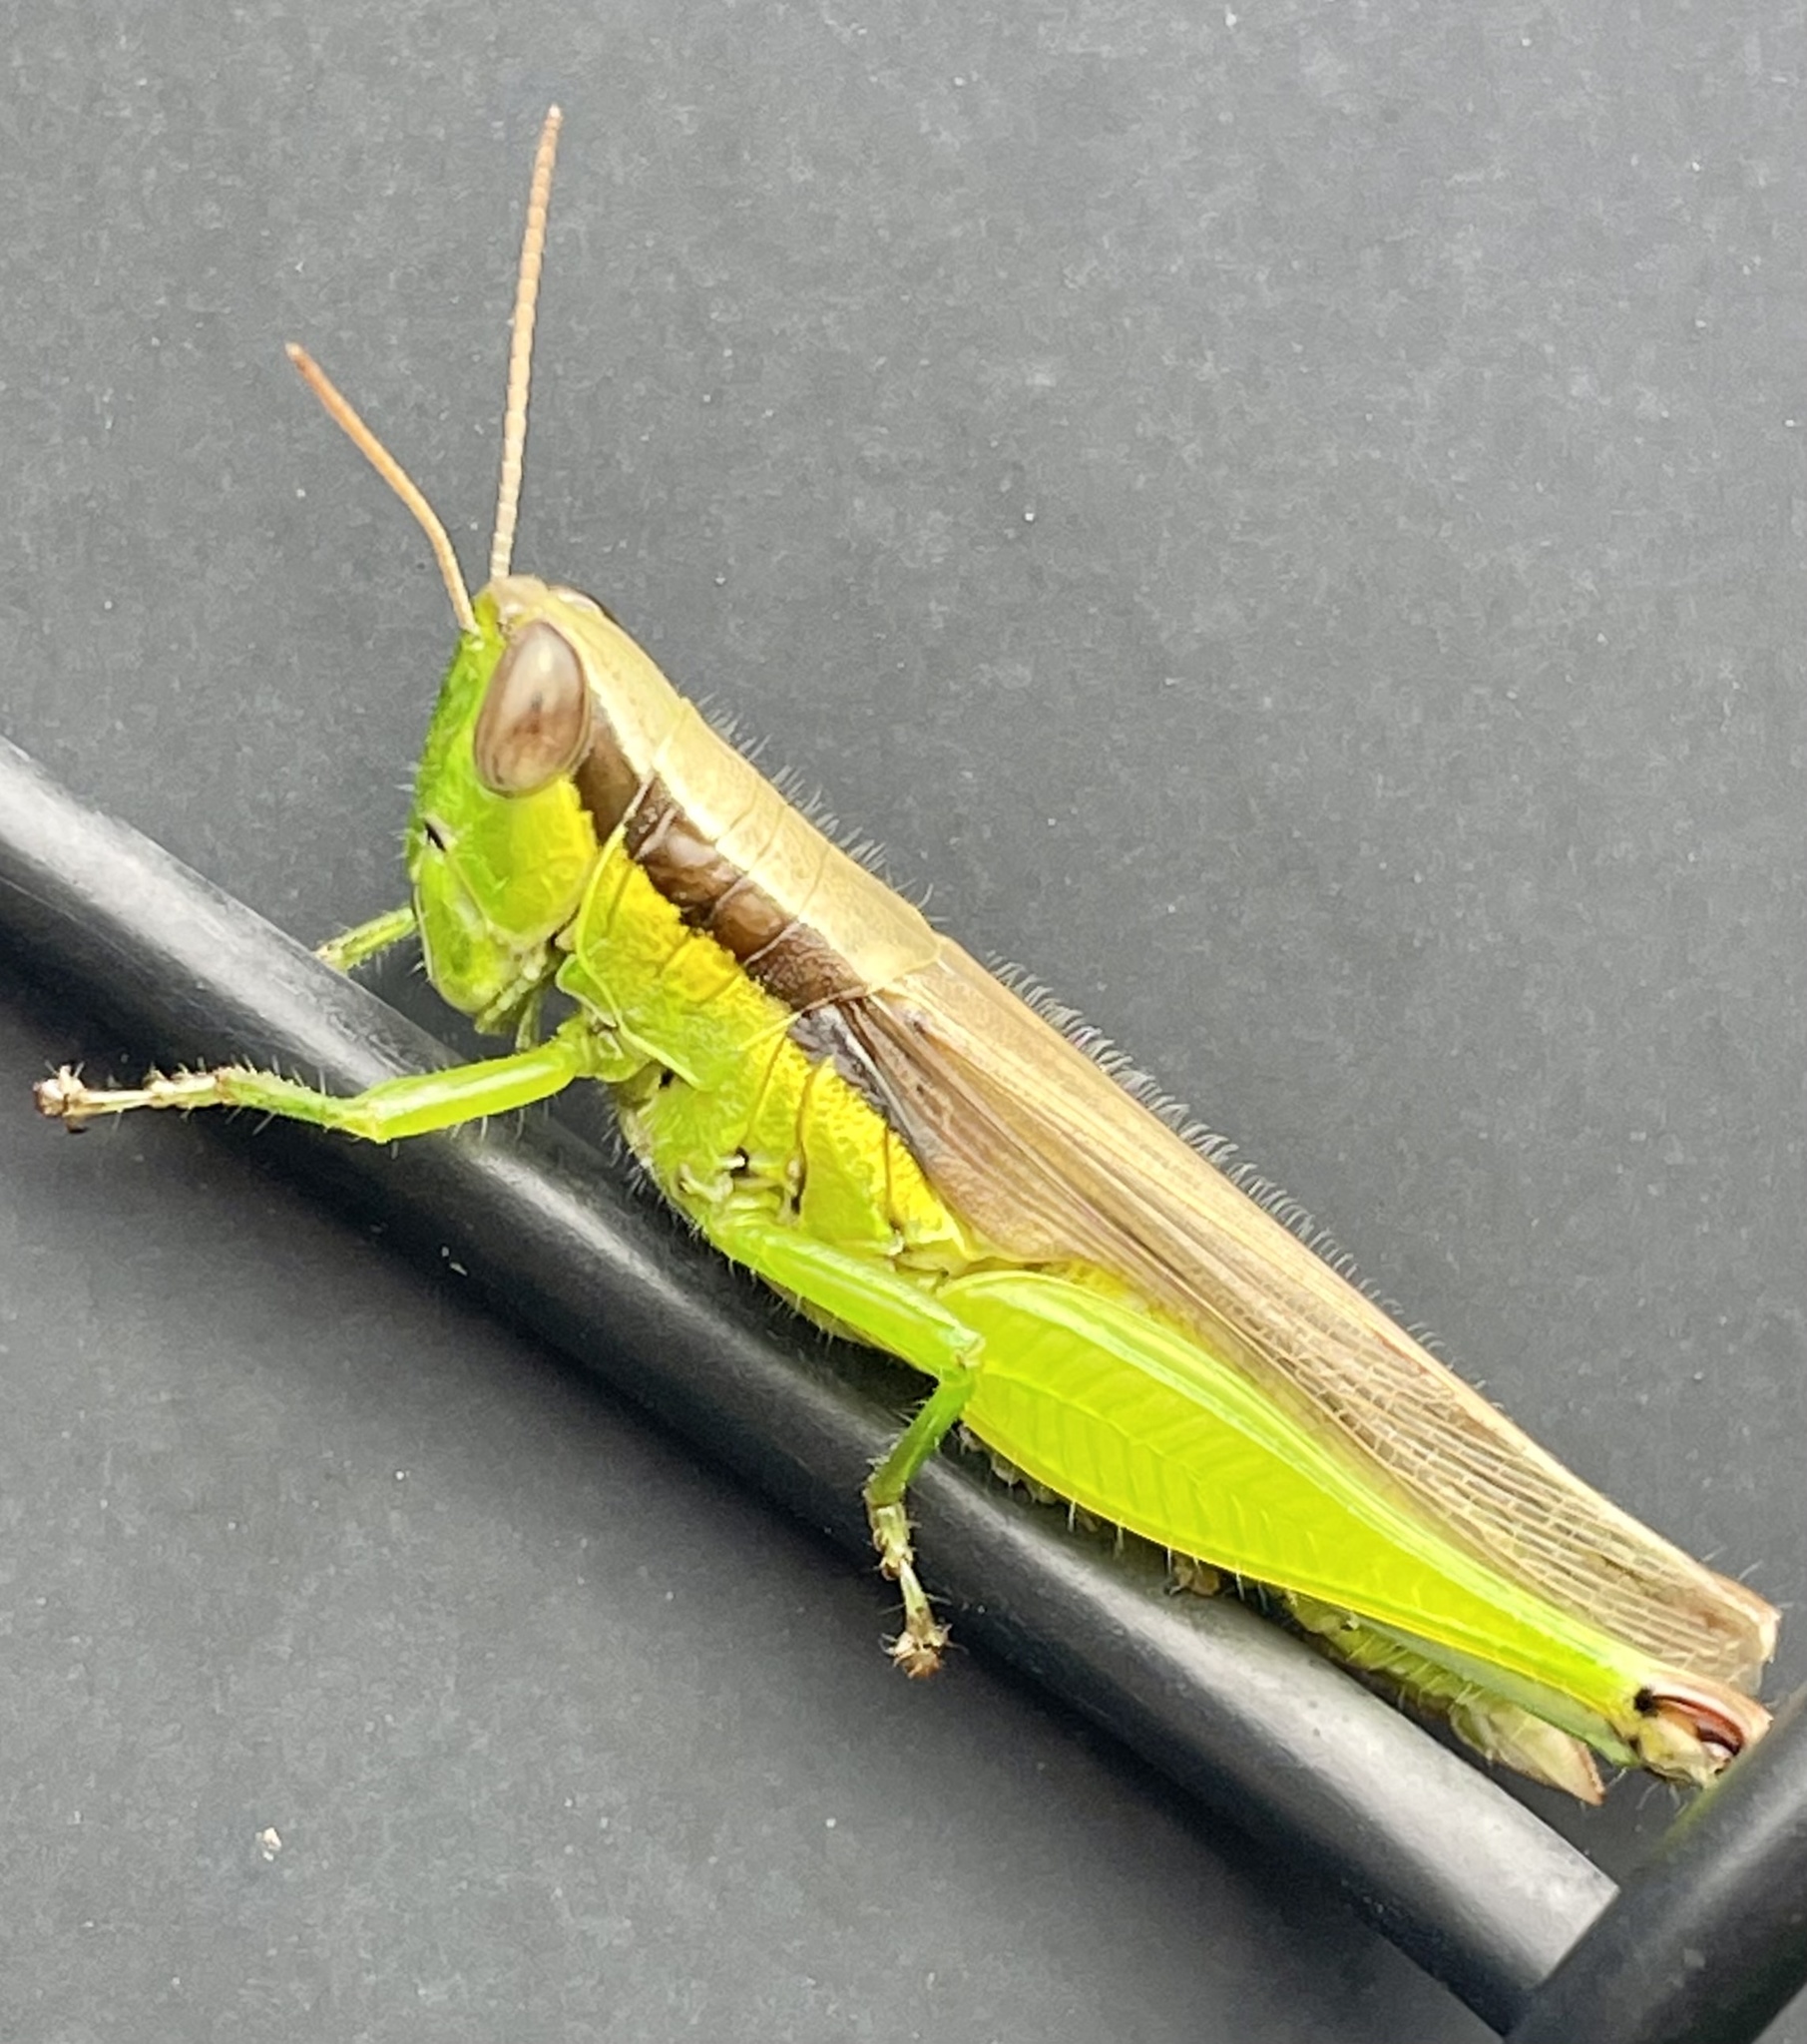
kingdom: Animalia
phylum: Arthropoda
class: Insecta
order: Orthoptera
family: Acrididae
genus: Oxya
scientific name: Oxya japonica
